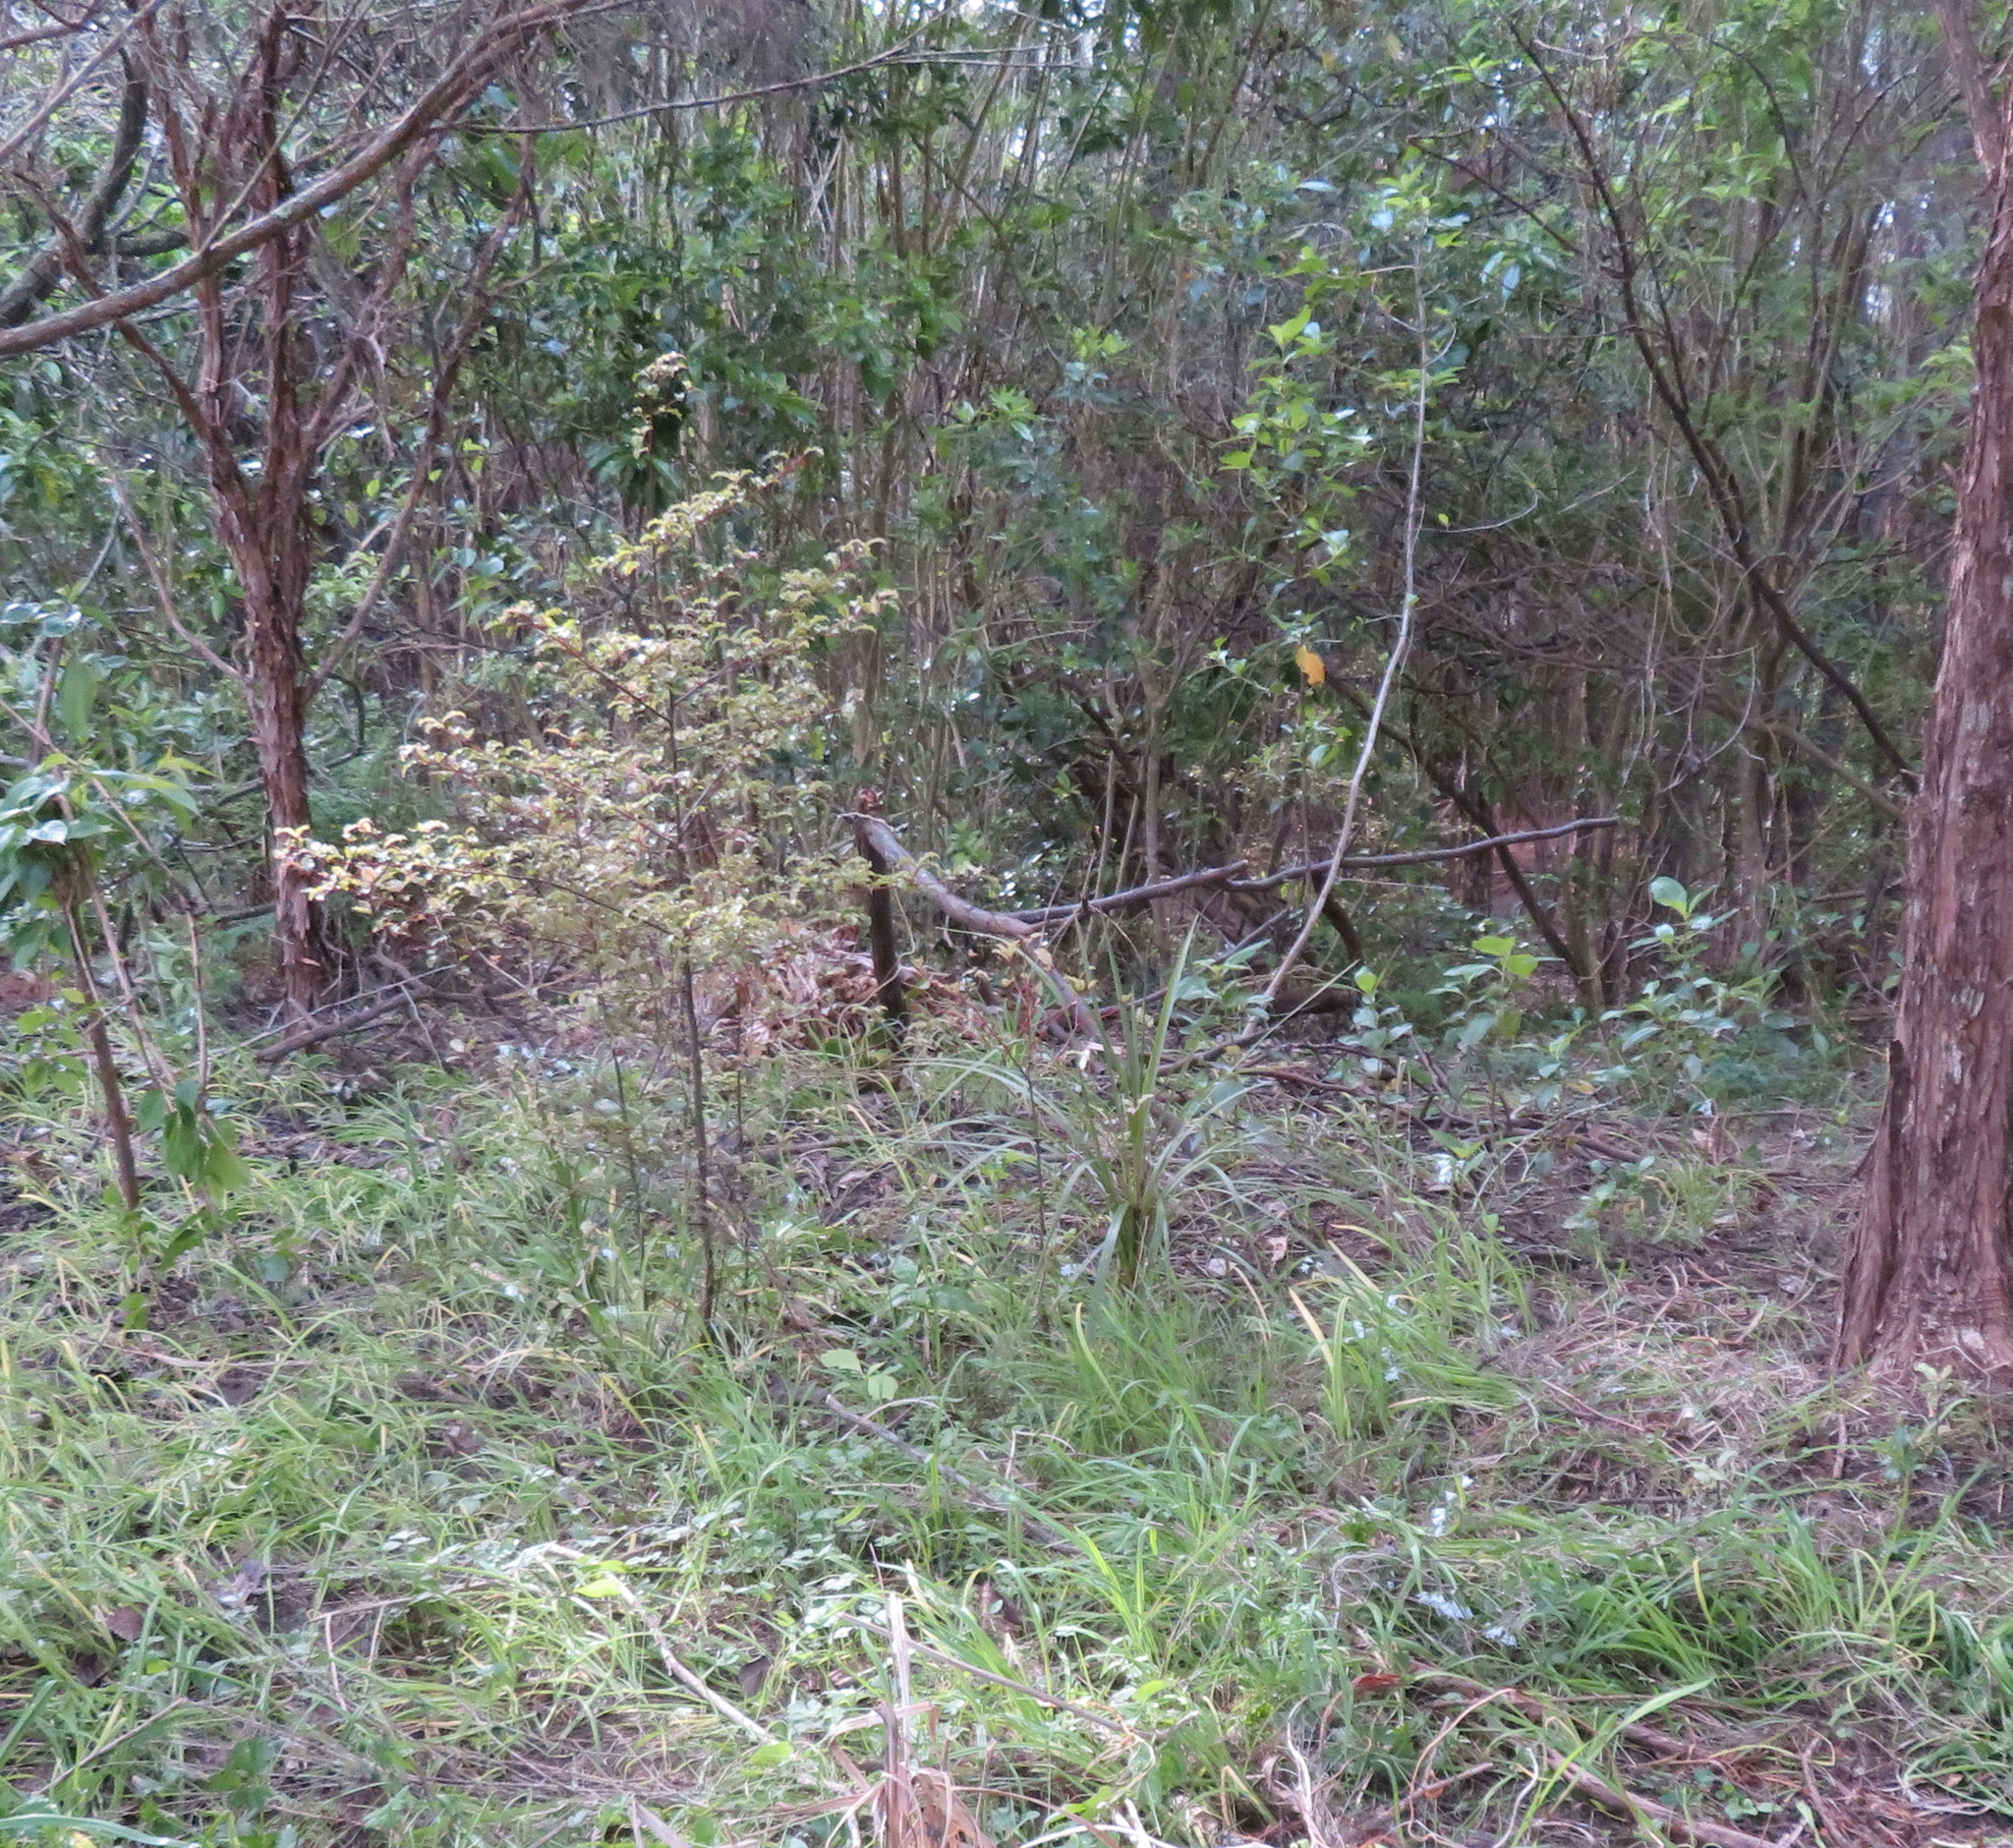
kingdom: Plantae
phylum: Tracheophyta
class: Magnoliopsida
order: Ericales
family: Primulaceae
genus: Myrsine
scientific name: Myrsine australis
